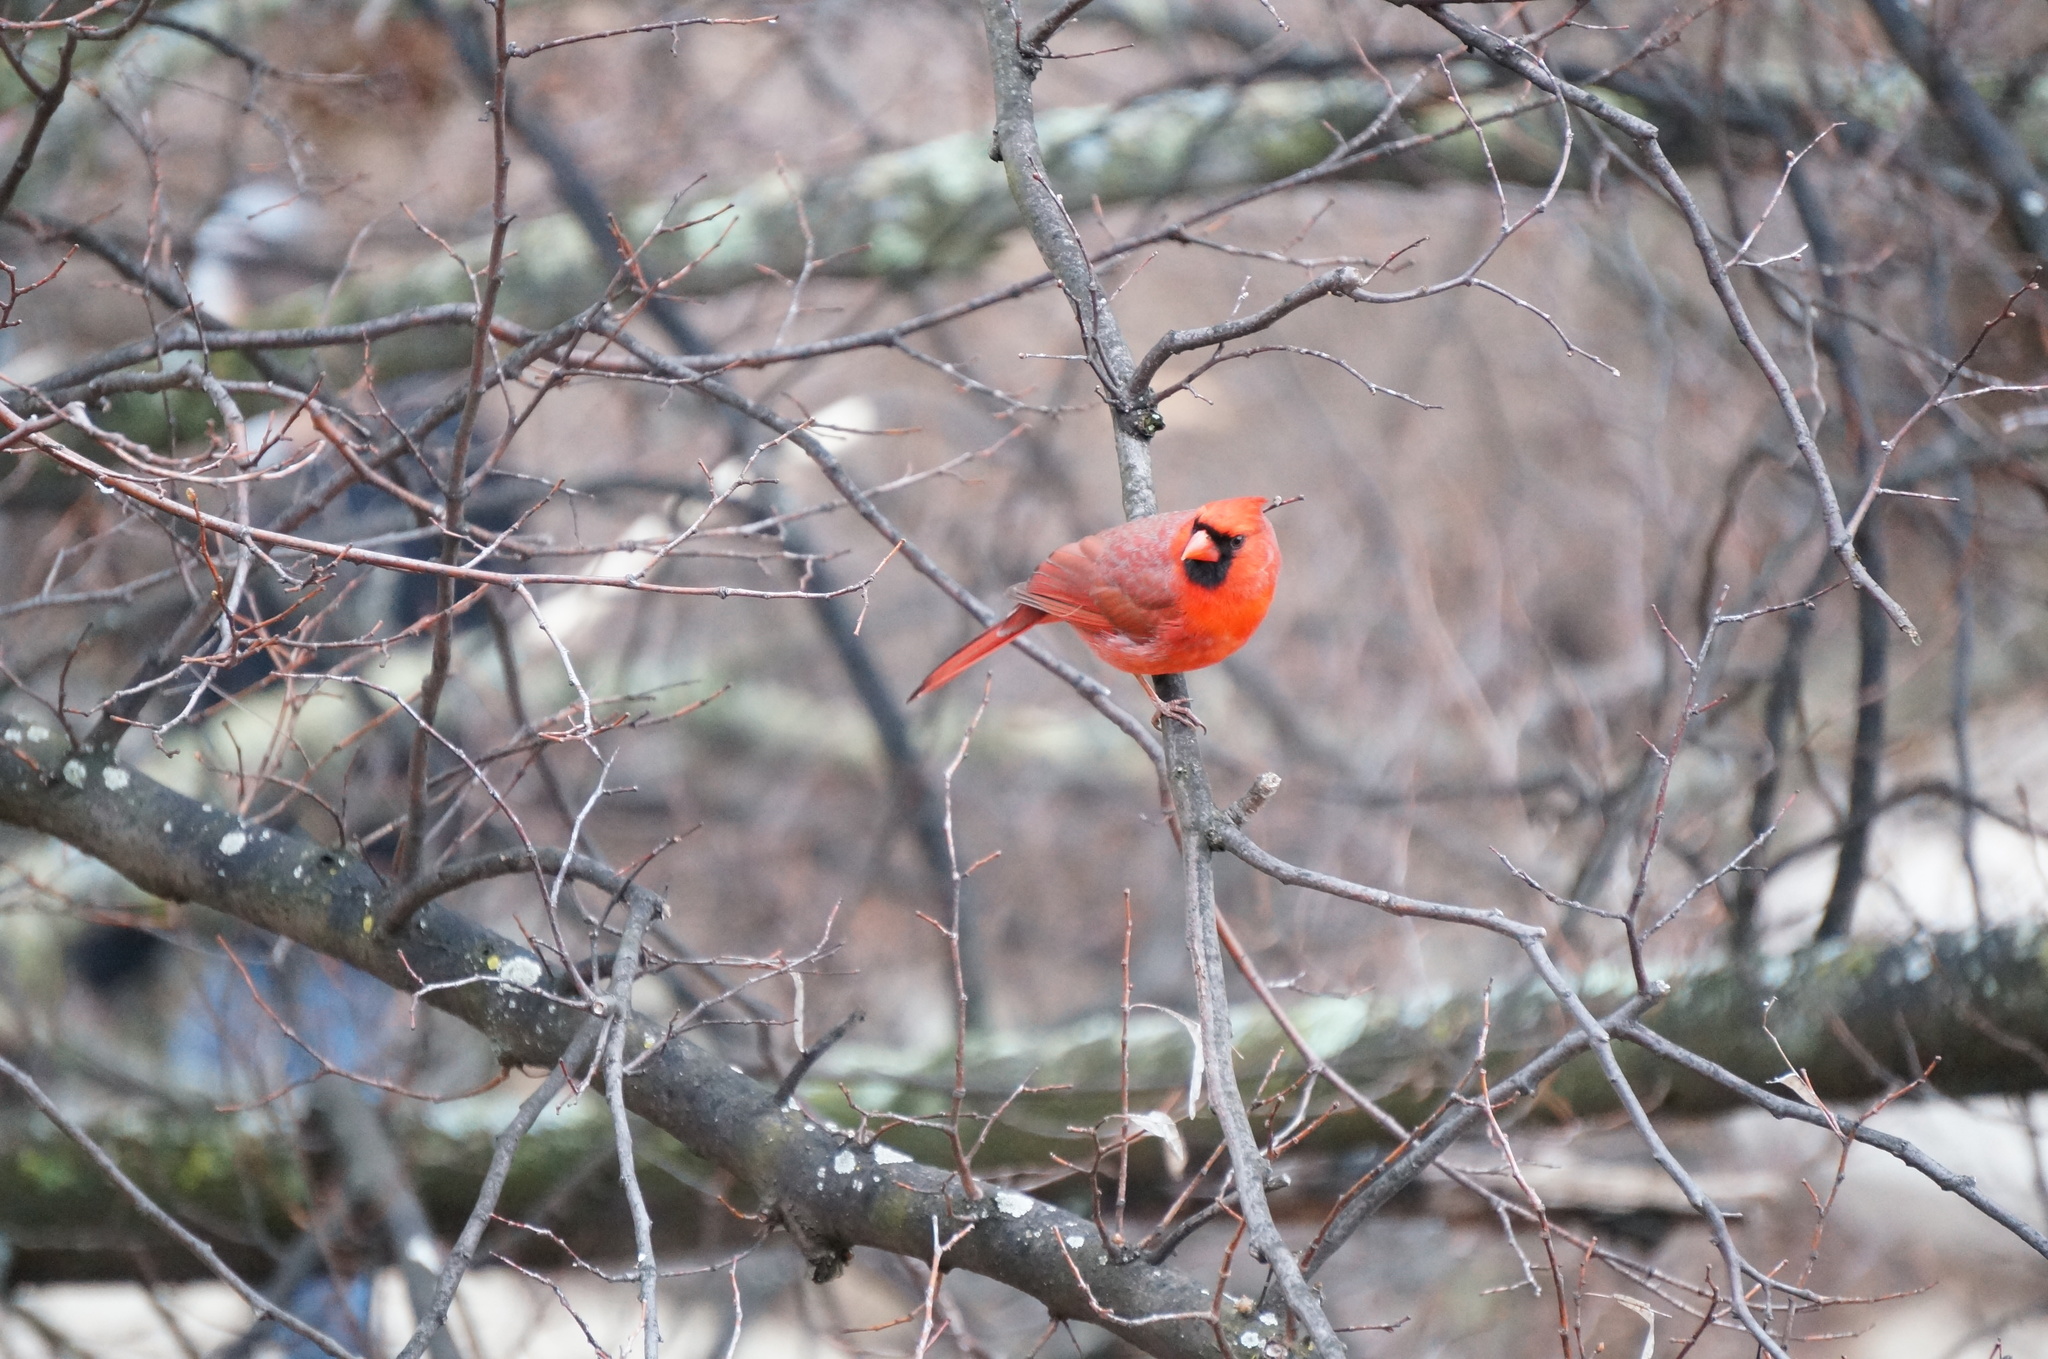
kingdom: Animalia
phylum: Chordata
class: Aves
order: Passeriformes
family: Cardinalidae
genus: Cardinalis
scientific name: Cardinalis cardinalis
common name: Northern cardinal
